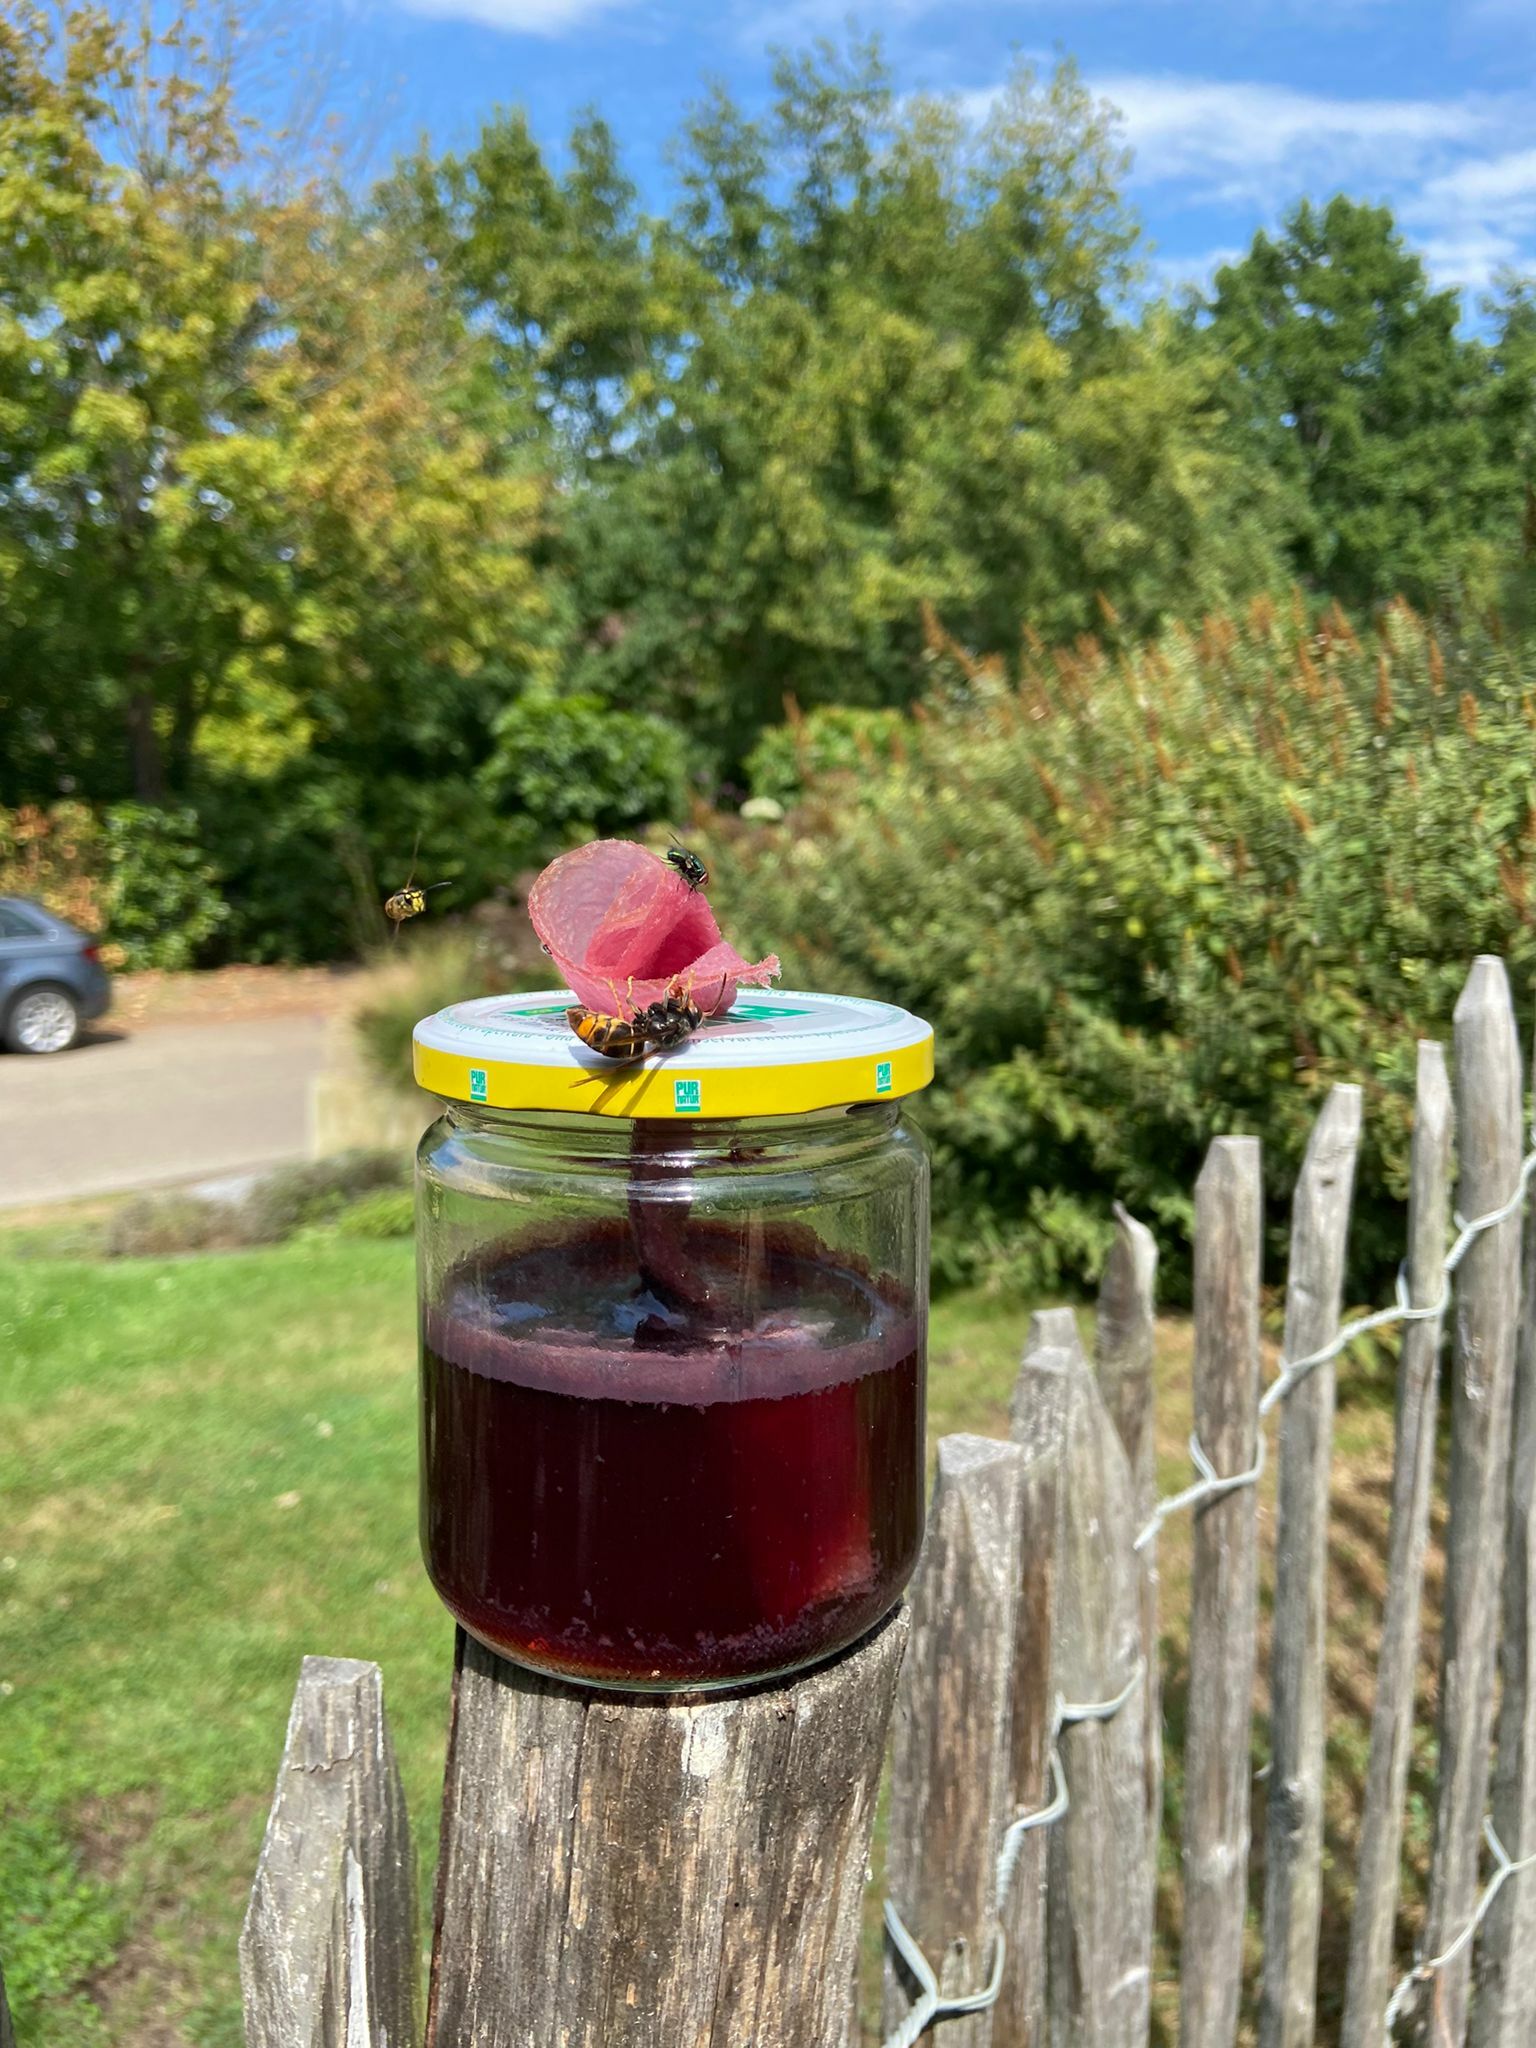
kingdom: Animalia
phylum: Arthropoda
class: Insecta
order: Hymenoptera
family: Vespidae
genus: Vespa
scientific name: Vespa velutina
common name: Asian hornet
